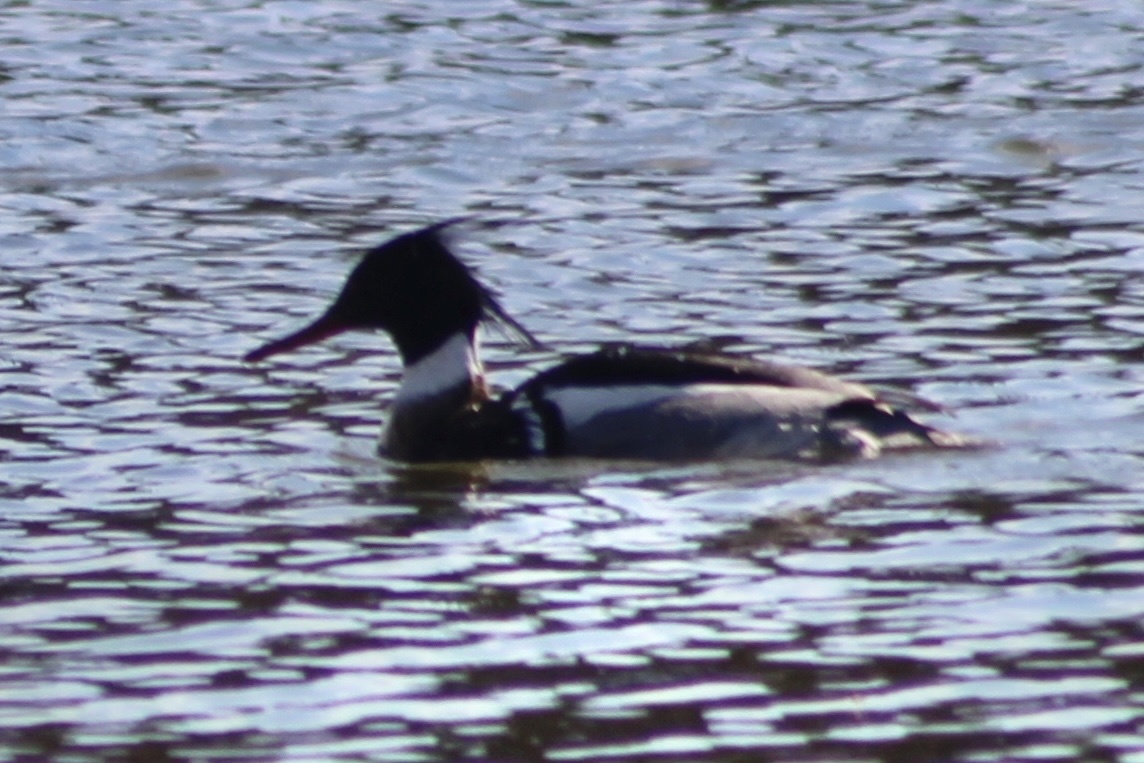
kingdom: Animalia
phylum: Chordata
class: Aves
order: Anseriformes
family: Anatidae
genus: Mergus
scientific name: Mergus serrator
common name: Red-breasted merganser
